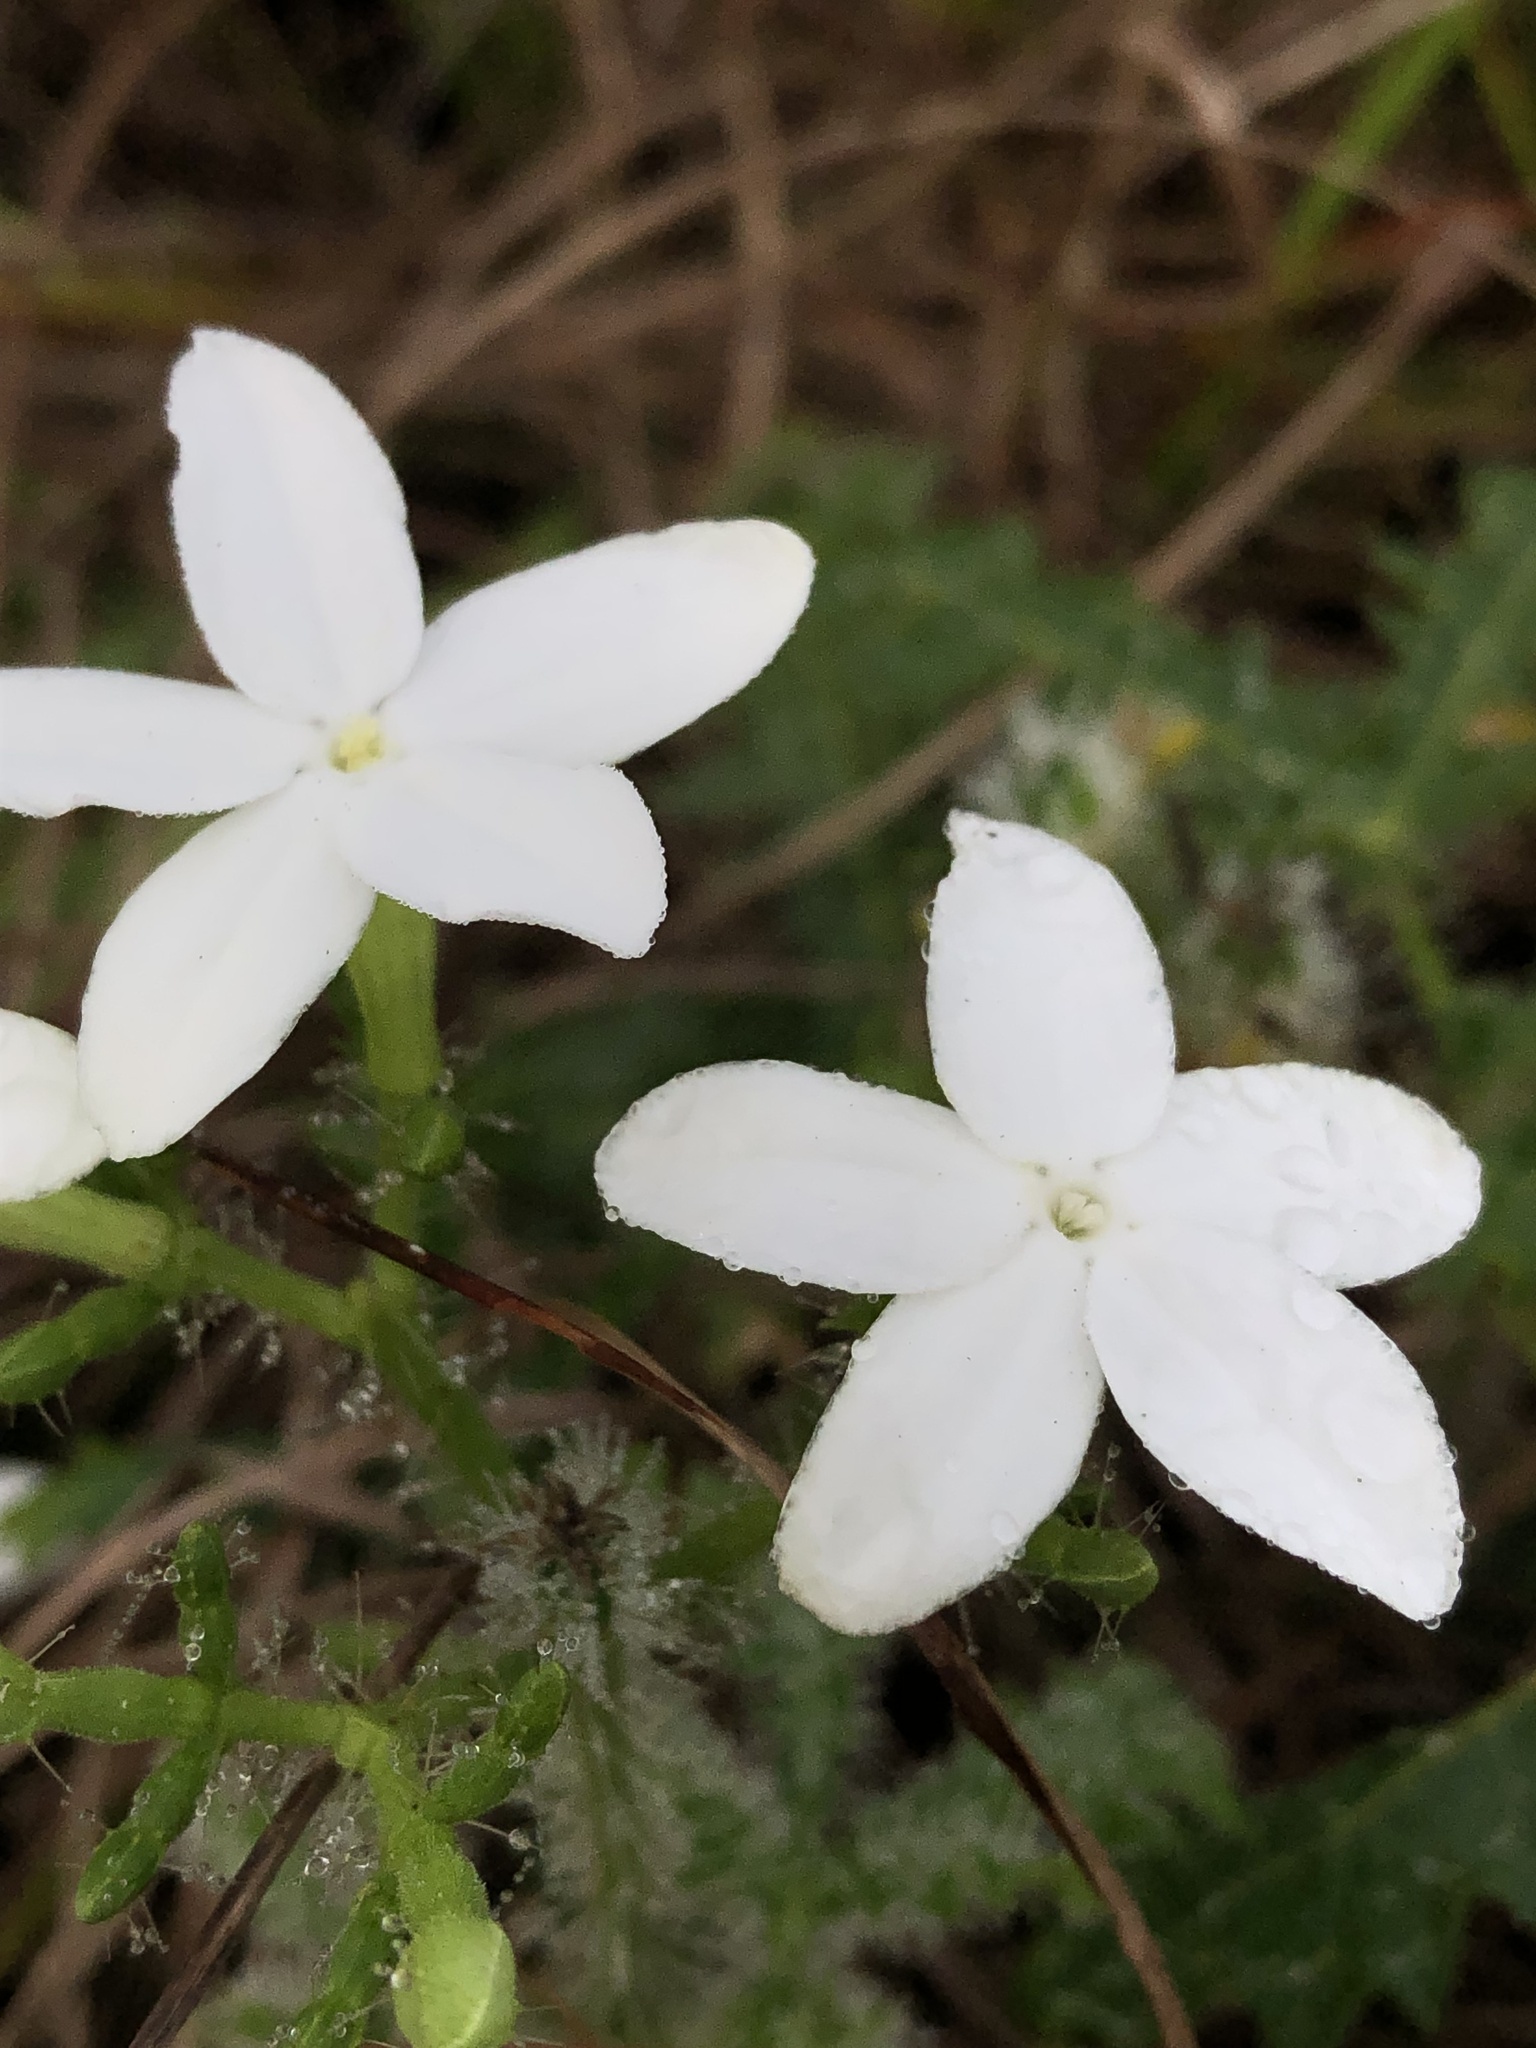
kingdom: Plantae
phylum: Tracheophyta
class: Magnoliopsida
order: Malpighiales
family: Euphorbiaceae
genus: Cnidoscolus
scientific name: Cnidoscolus stimulosus
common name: Bull-nettle
